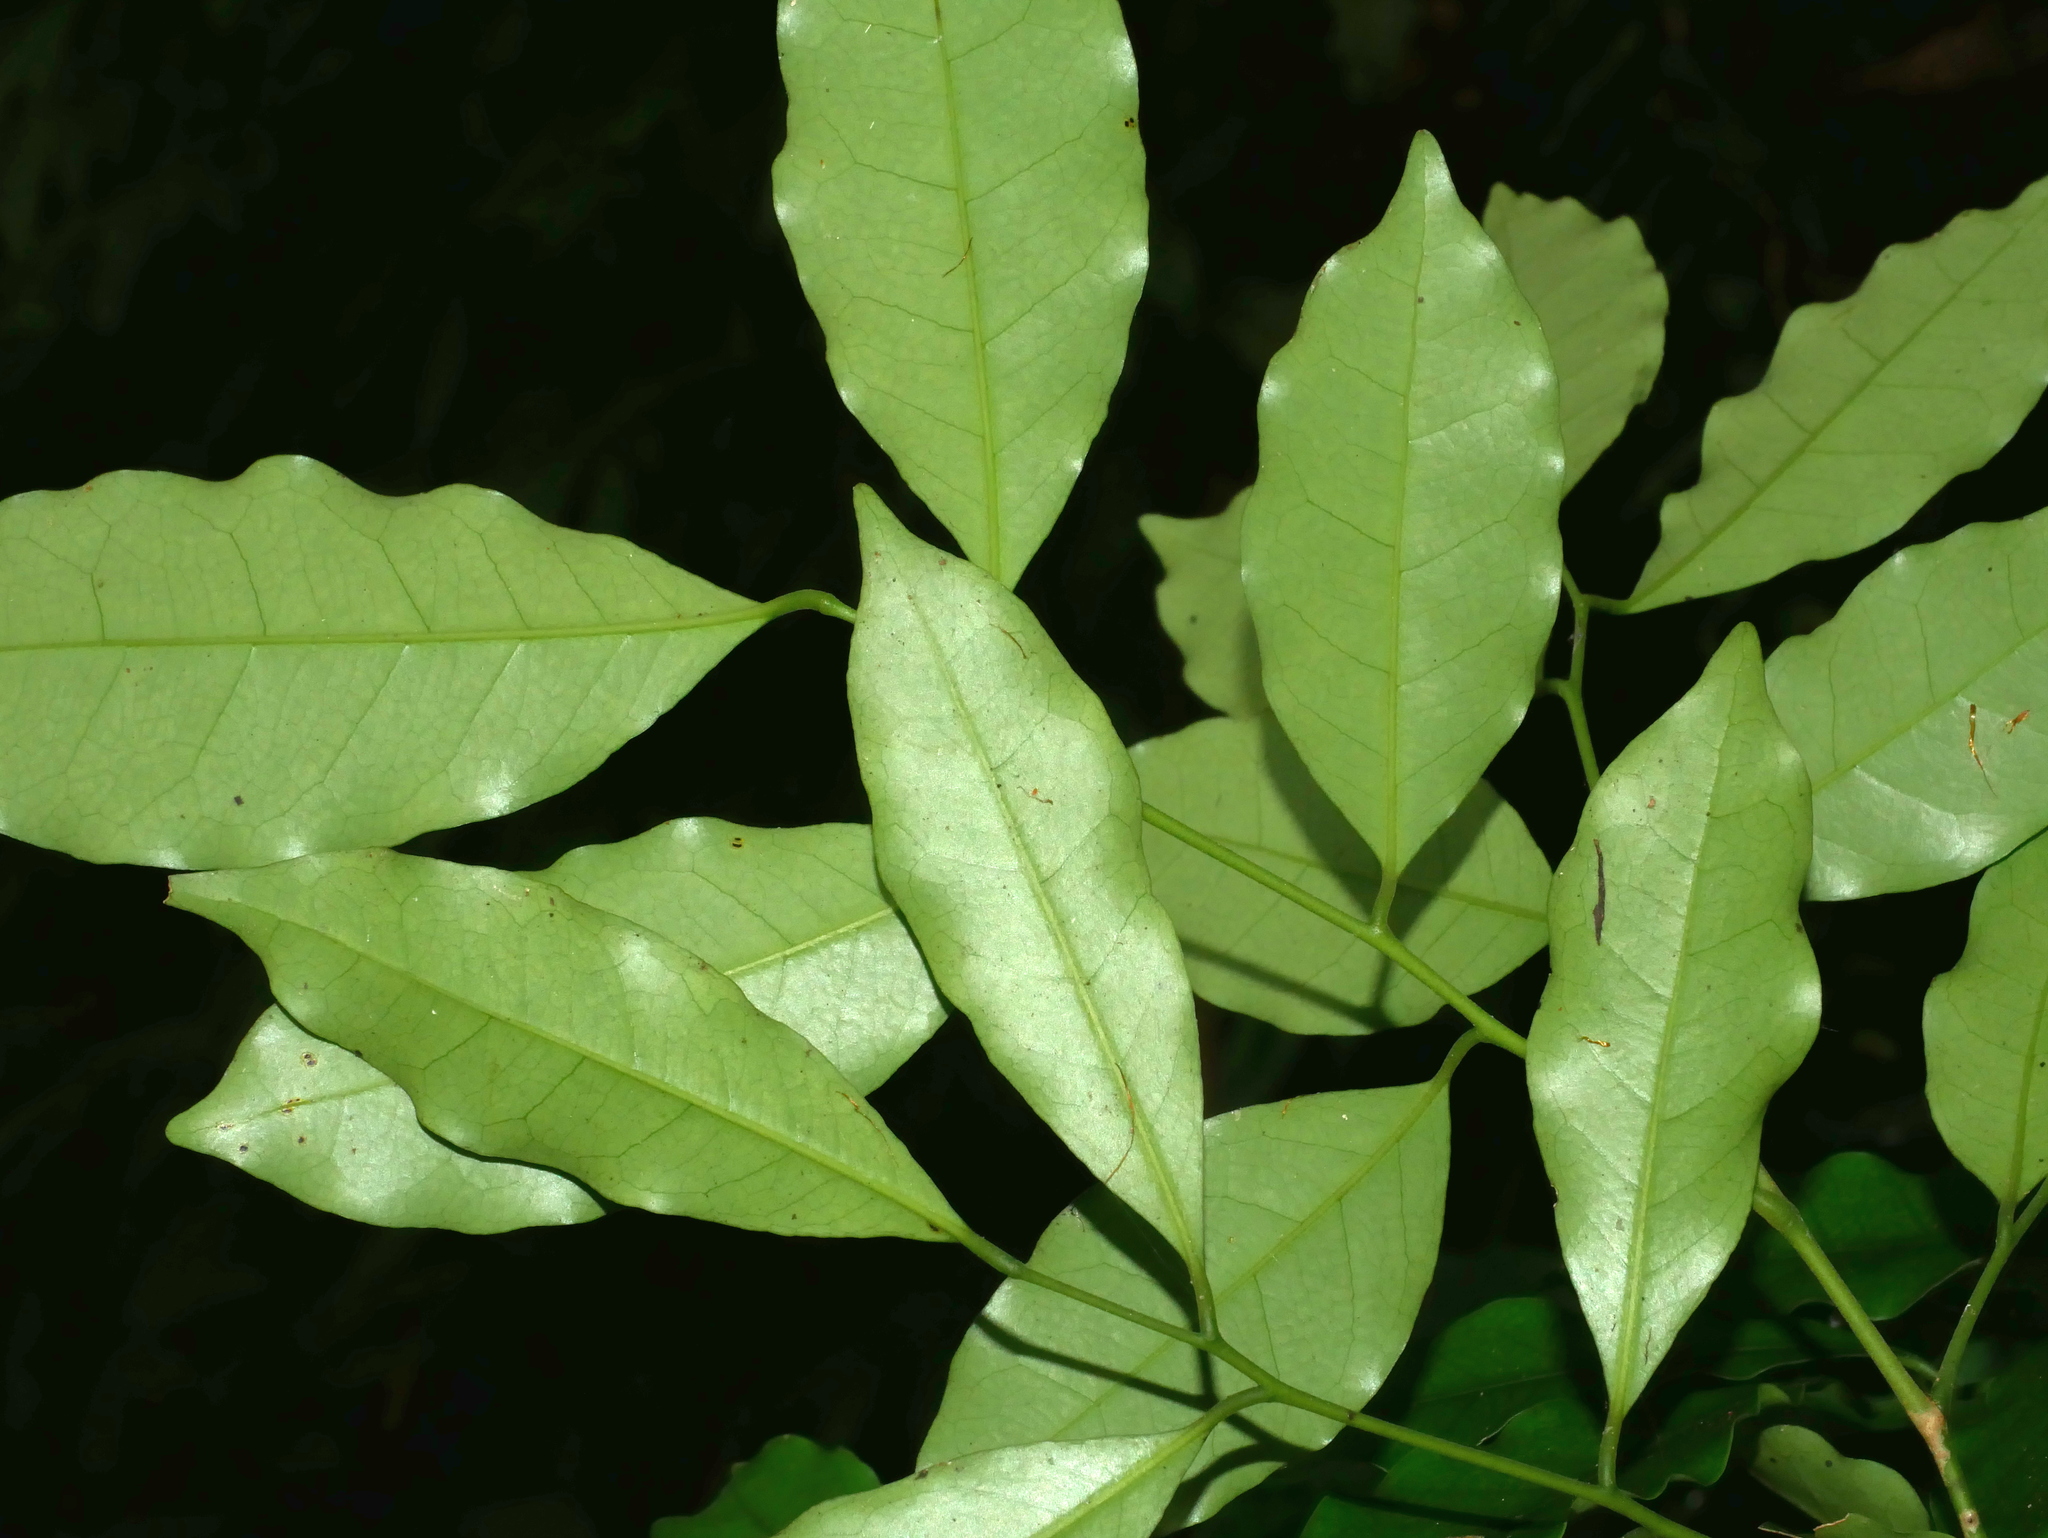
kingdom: Plantae
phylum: Tracheophyta
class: Magnoliopsida
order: Sapindales
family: Rutaceae
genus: Glycosmis
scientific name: Glycosmis parviflora
